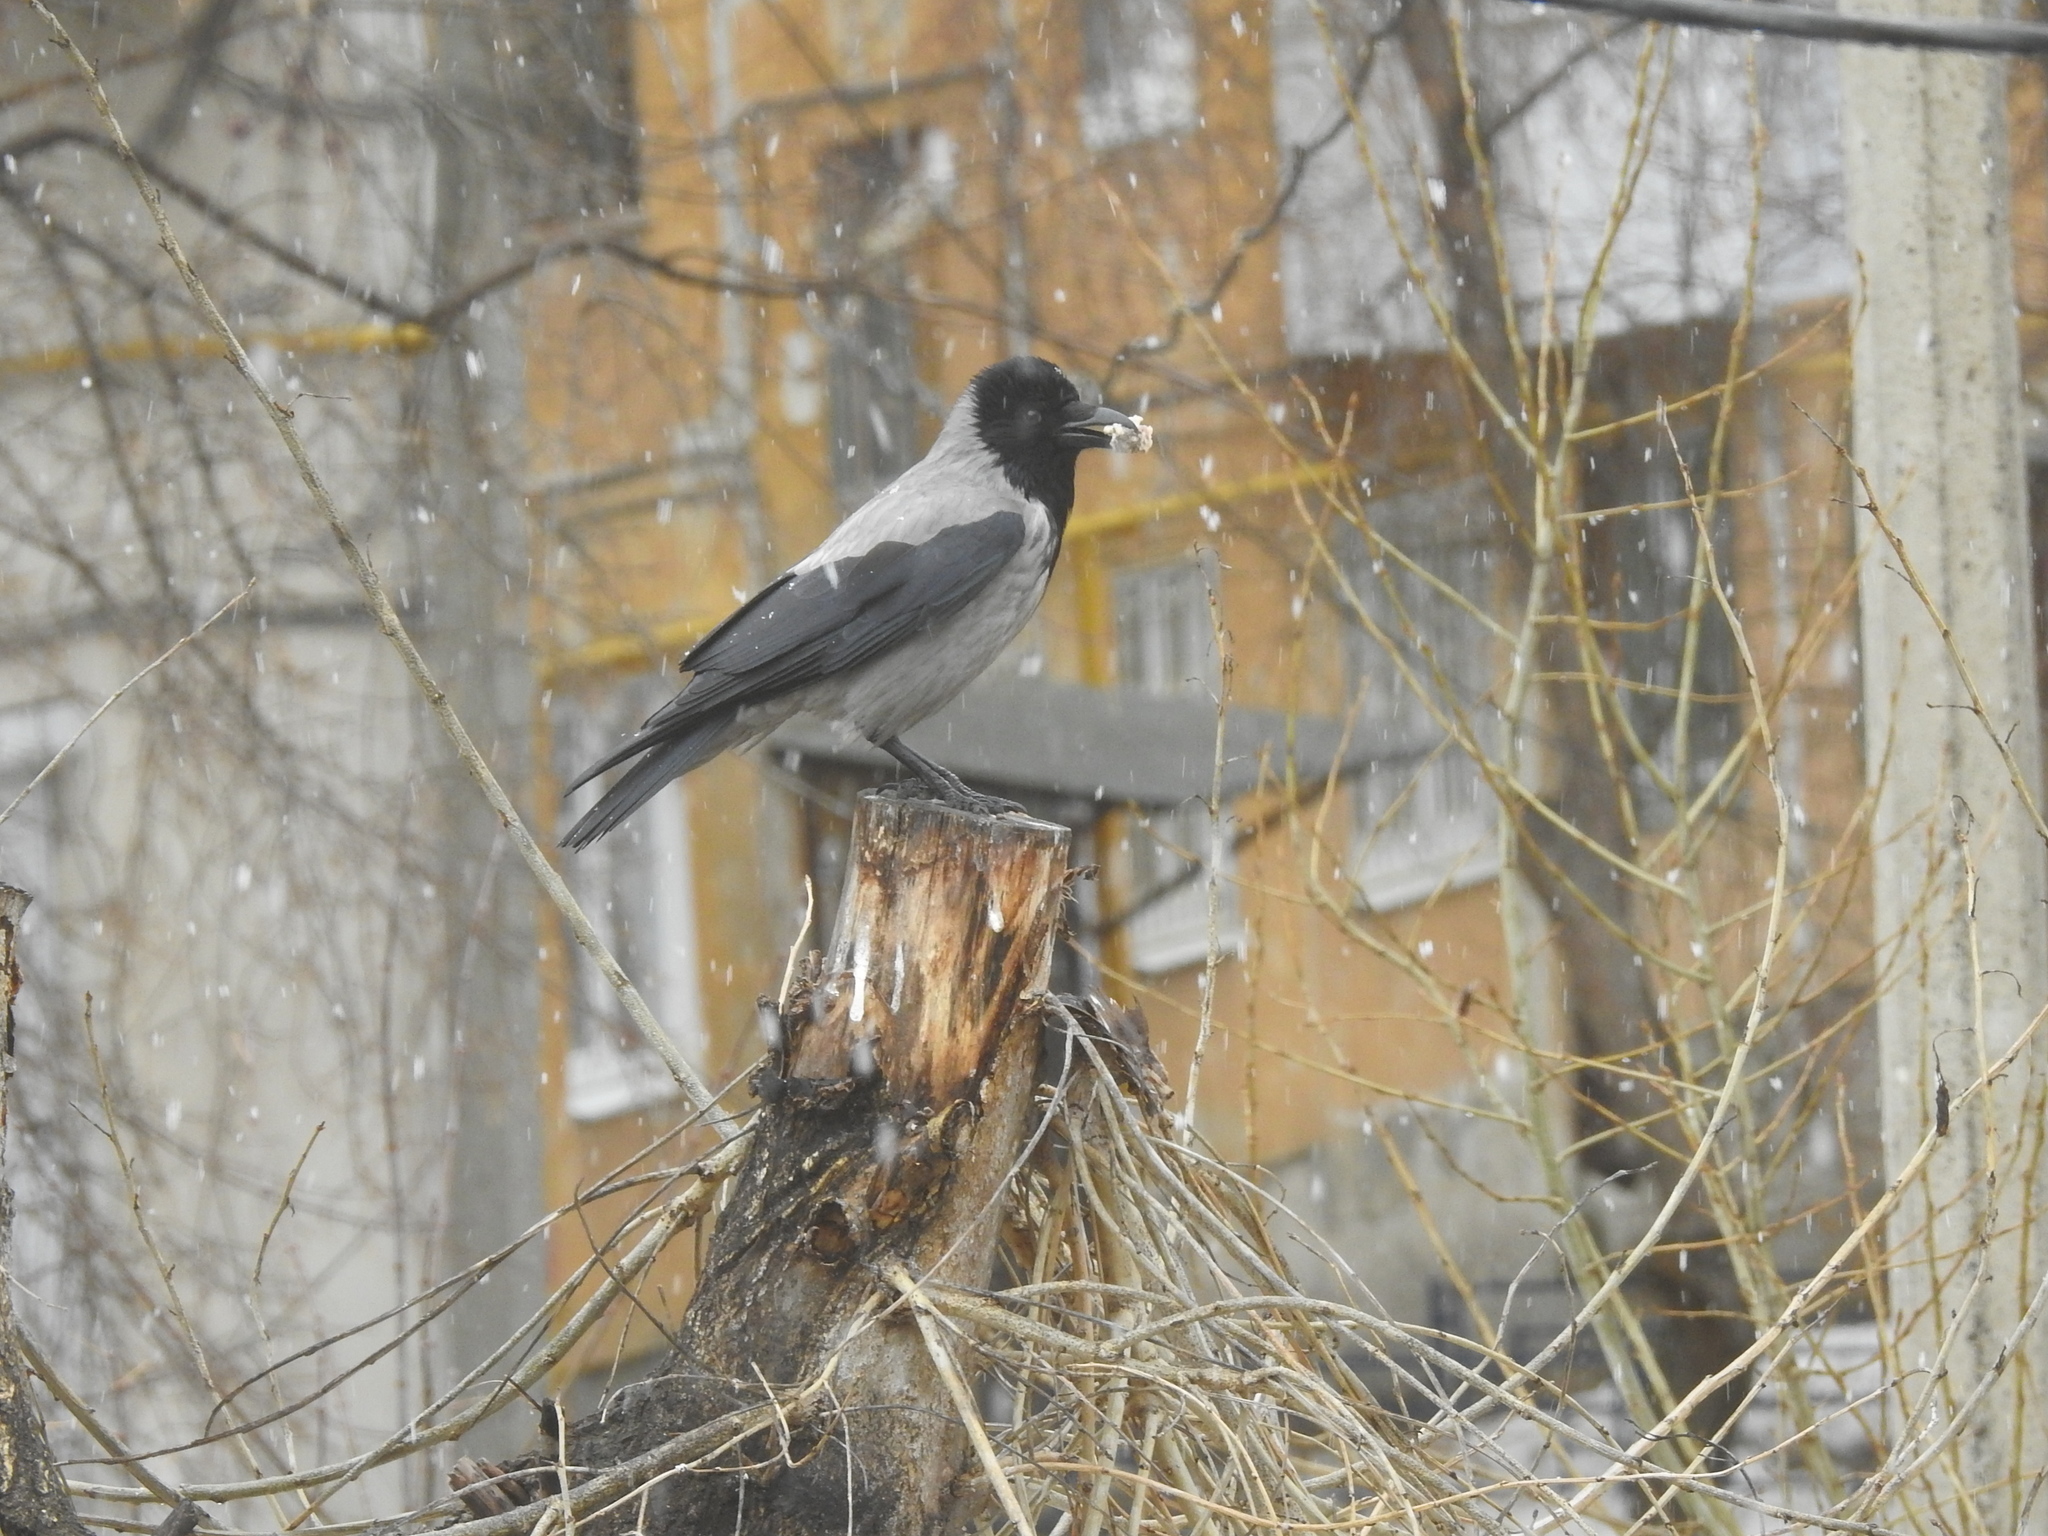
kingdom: Animalia
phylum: Chordata
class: Aves
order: Passeriformes
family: Corvidae
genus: Corvus
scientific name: Corvus cornix
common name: Hooded crow
